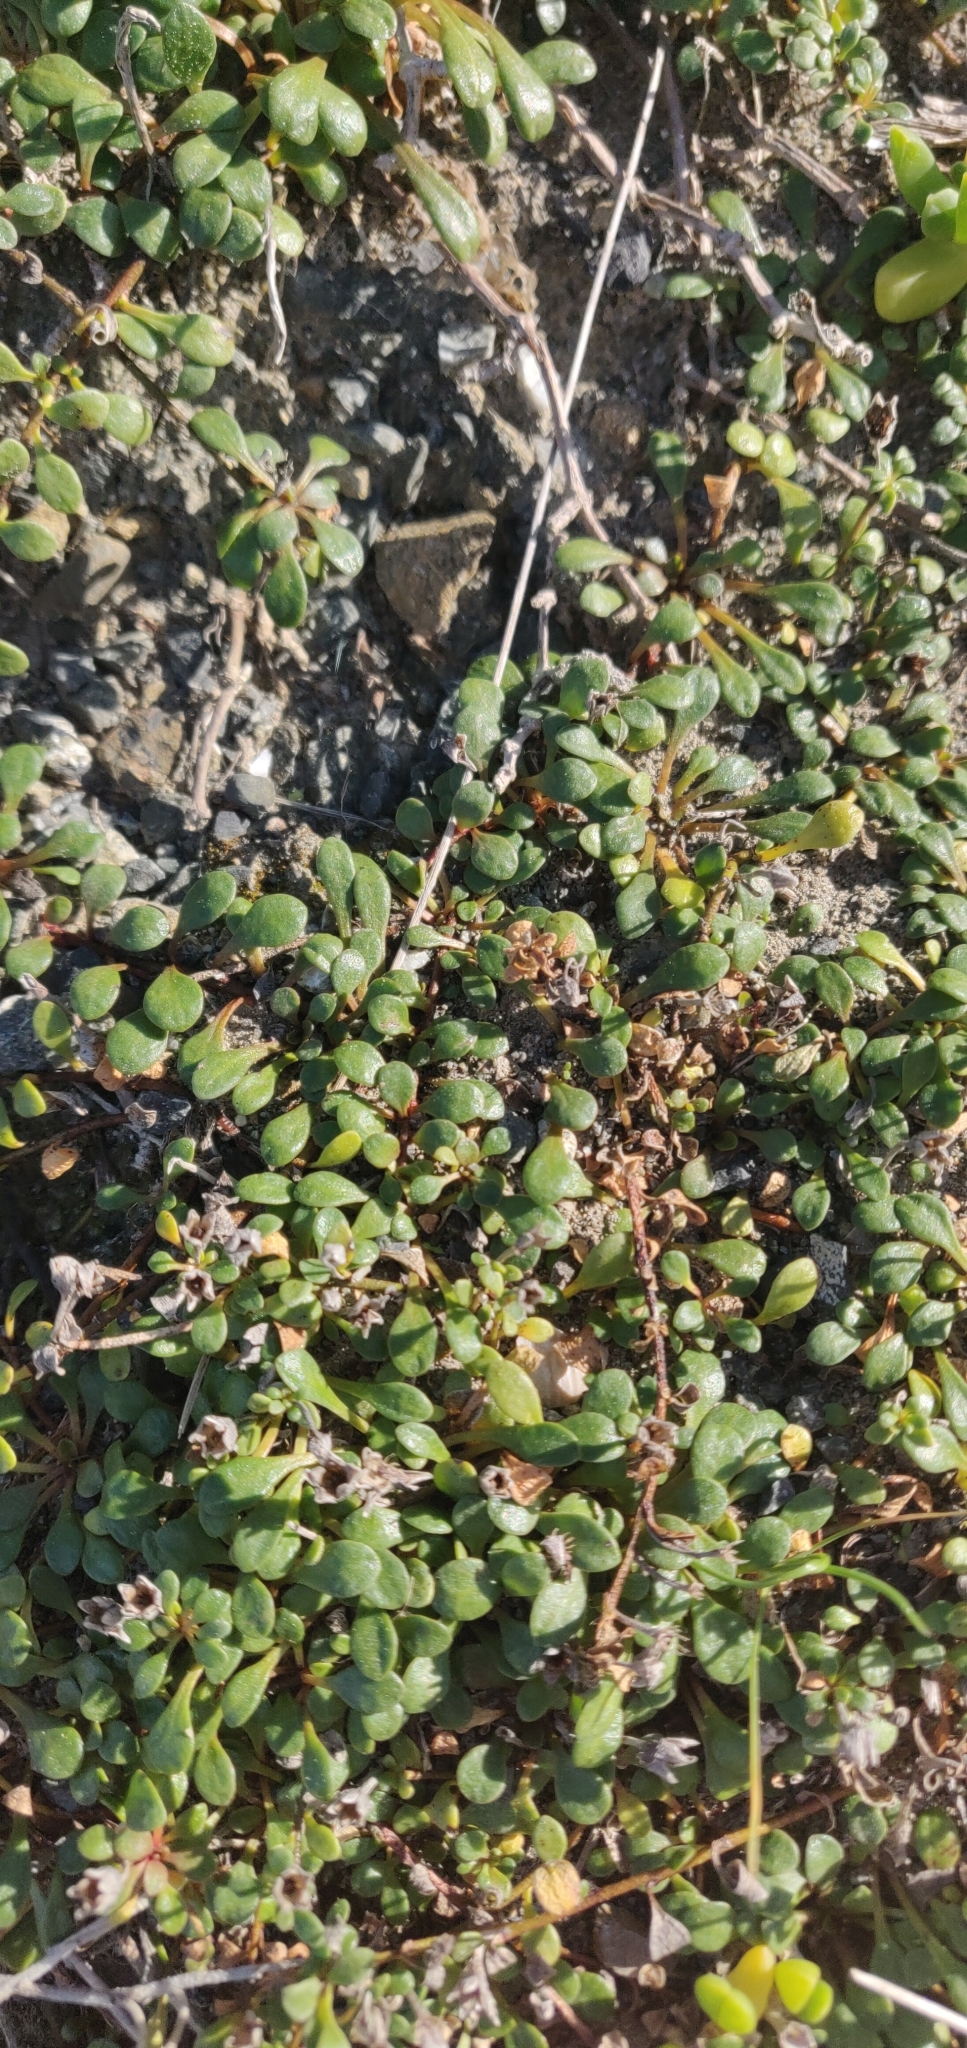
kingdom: Plantae
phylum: Tracheophyta
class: Magnoliopsida
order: Ericales
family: Primulaceae
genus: Samolus
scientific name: Samolus repens
